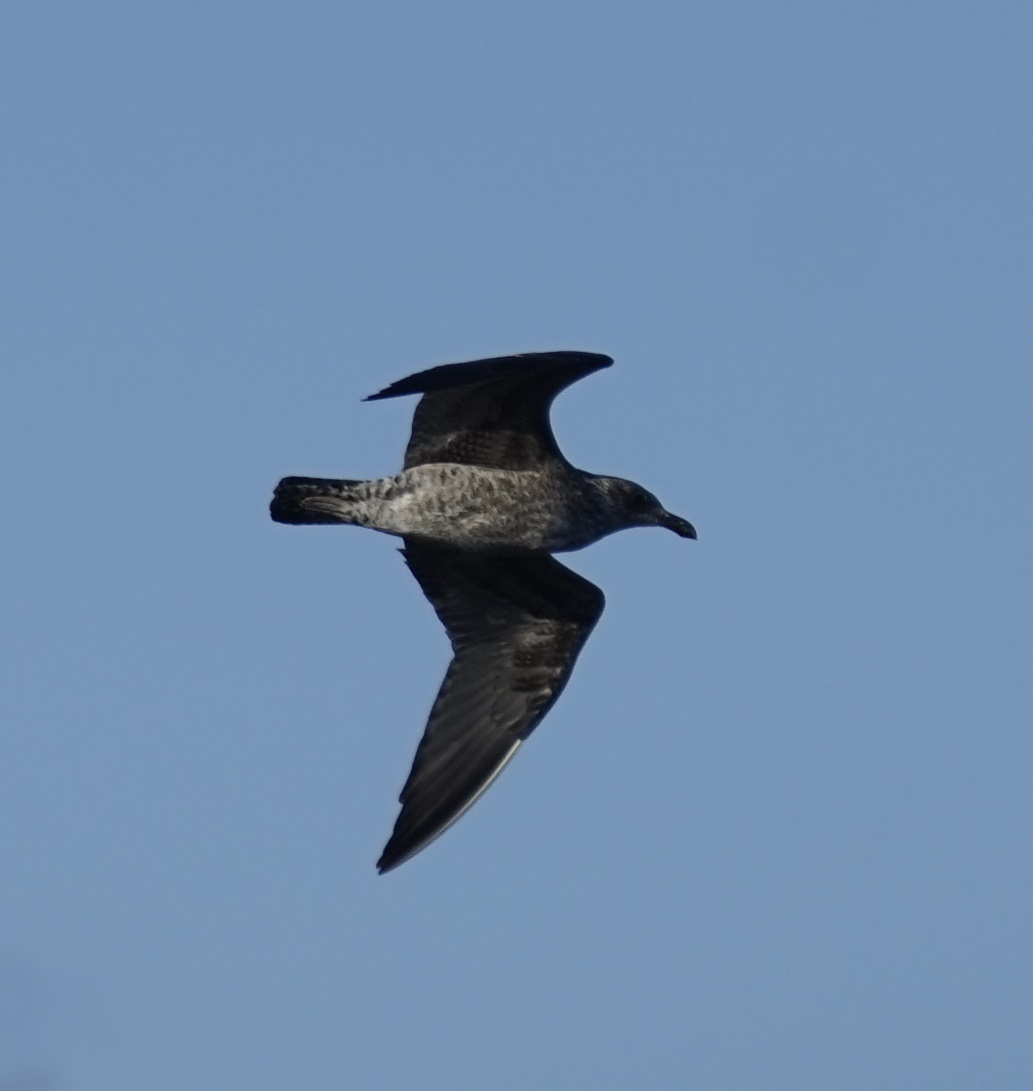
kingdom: Animalia
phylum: Chordata
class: Aves
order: Charadriiformes
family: Laridae
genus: Larus
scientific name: Larus dominicanus
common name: Kelp gull
